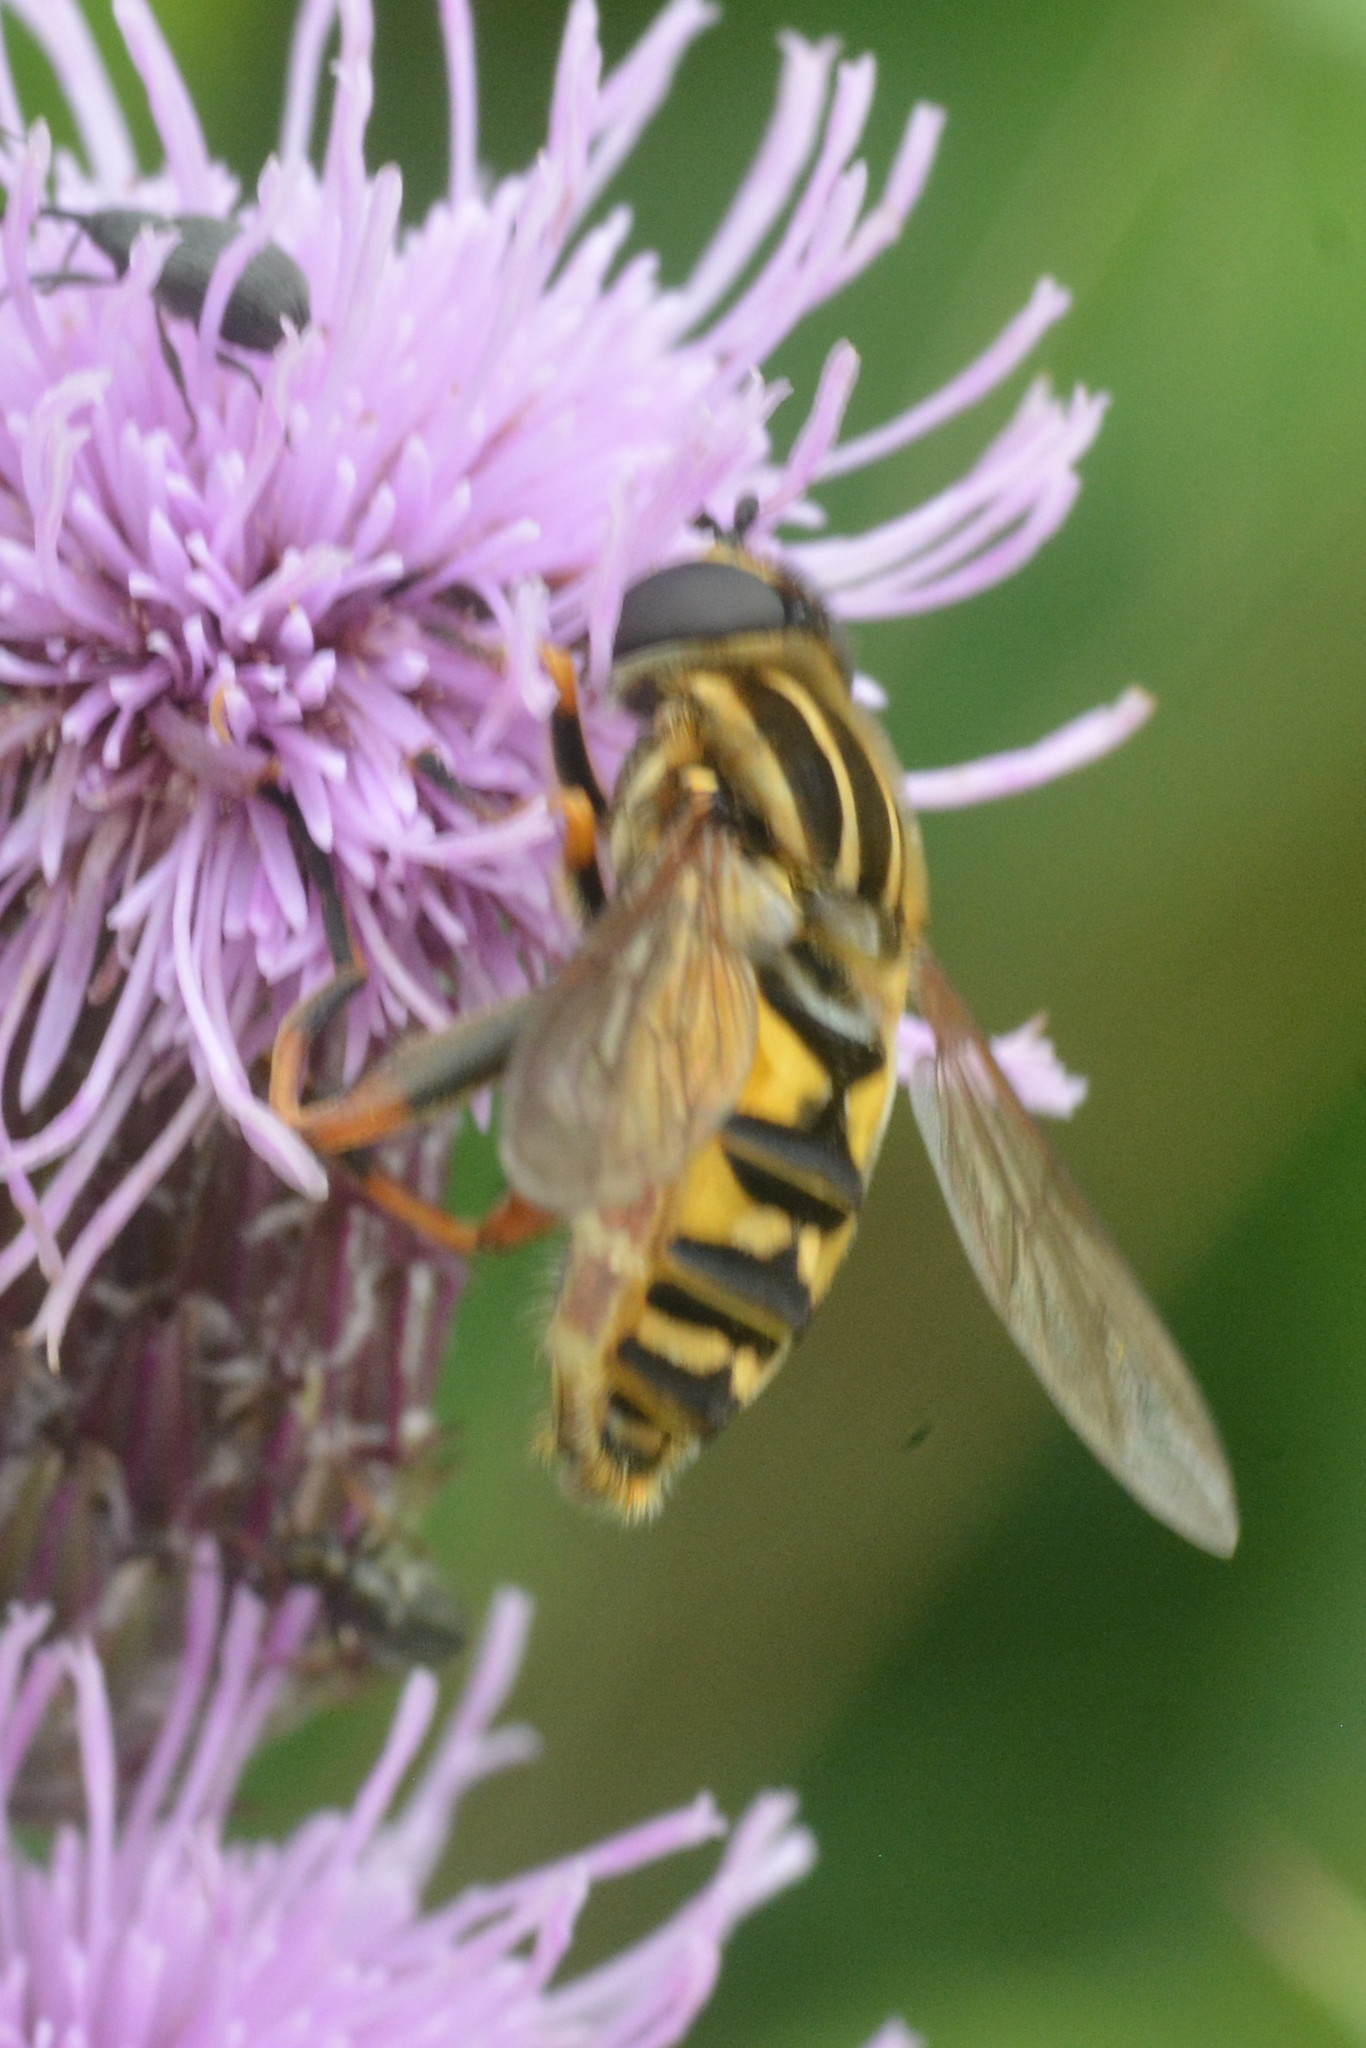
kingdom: Animalia
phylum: Arthropoda
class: Insecta
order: Diptera
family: Syrphidae
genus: Helophilus
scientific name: Helophilus pendulus
